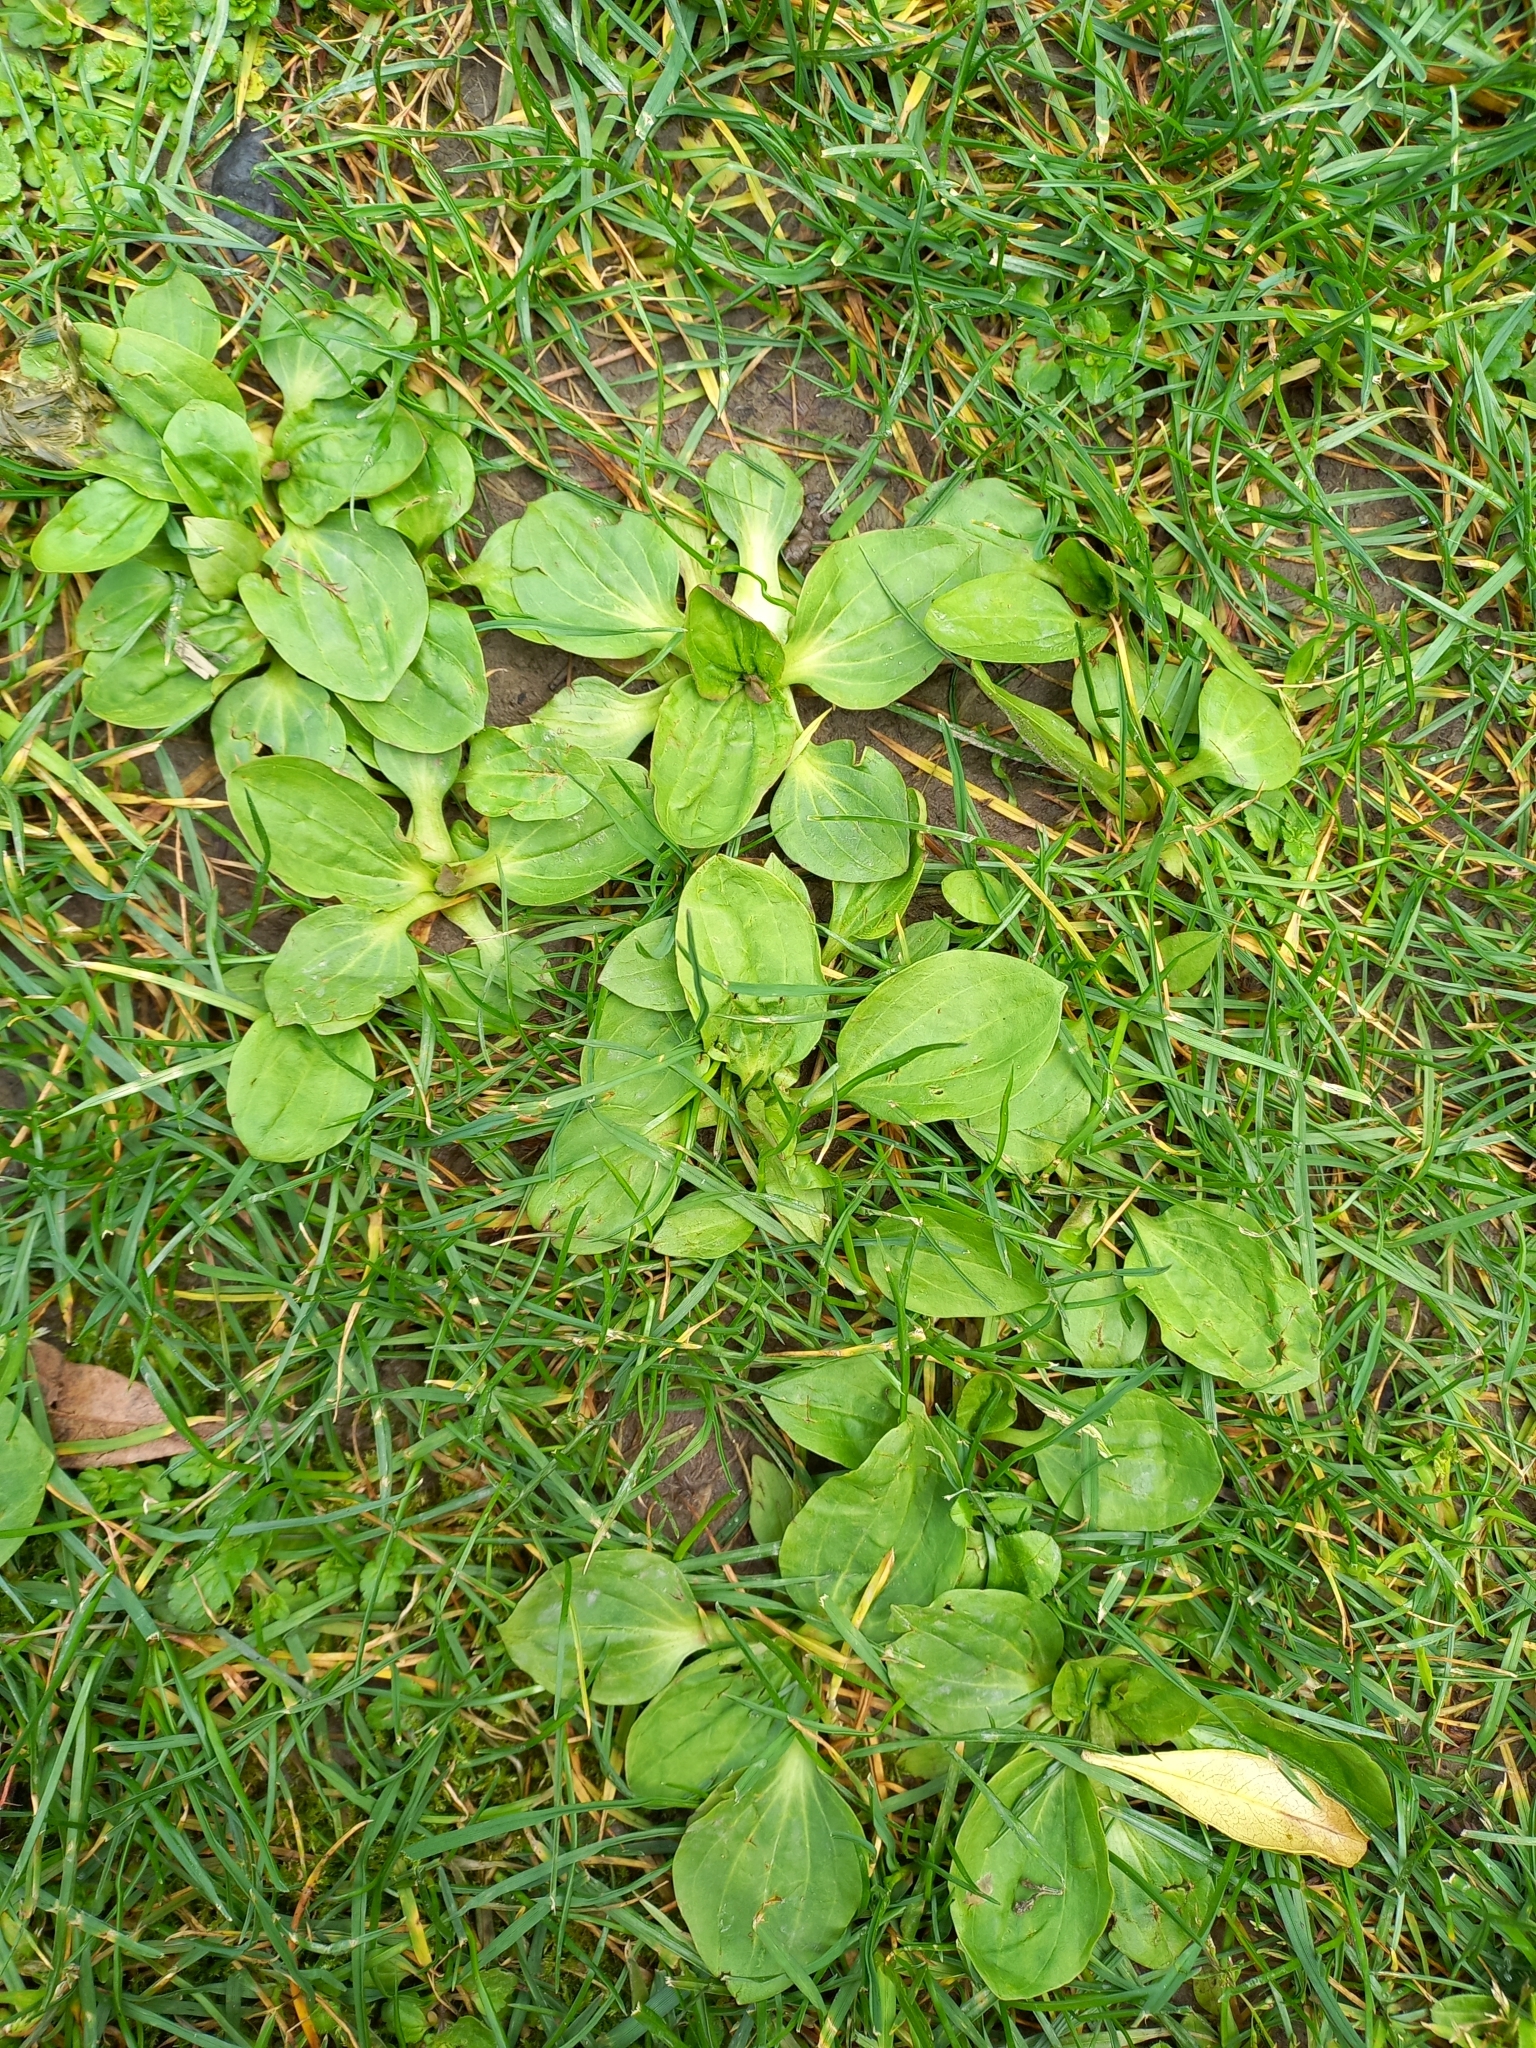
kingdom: Plantae
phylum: Tracheophyta
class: Magnoliopsida
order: Lamiales
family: Plantaginaceae
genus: Plantago
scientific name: Plantago major
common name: Common plantain
